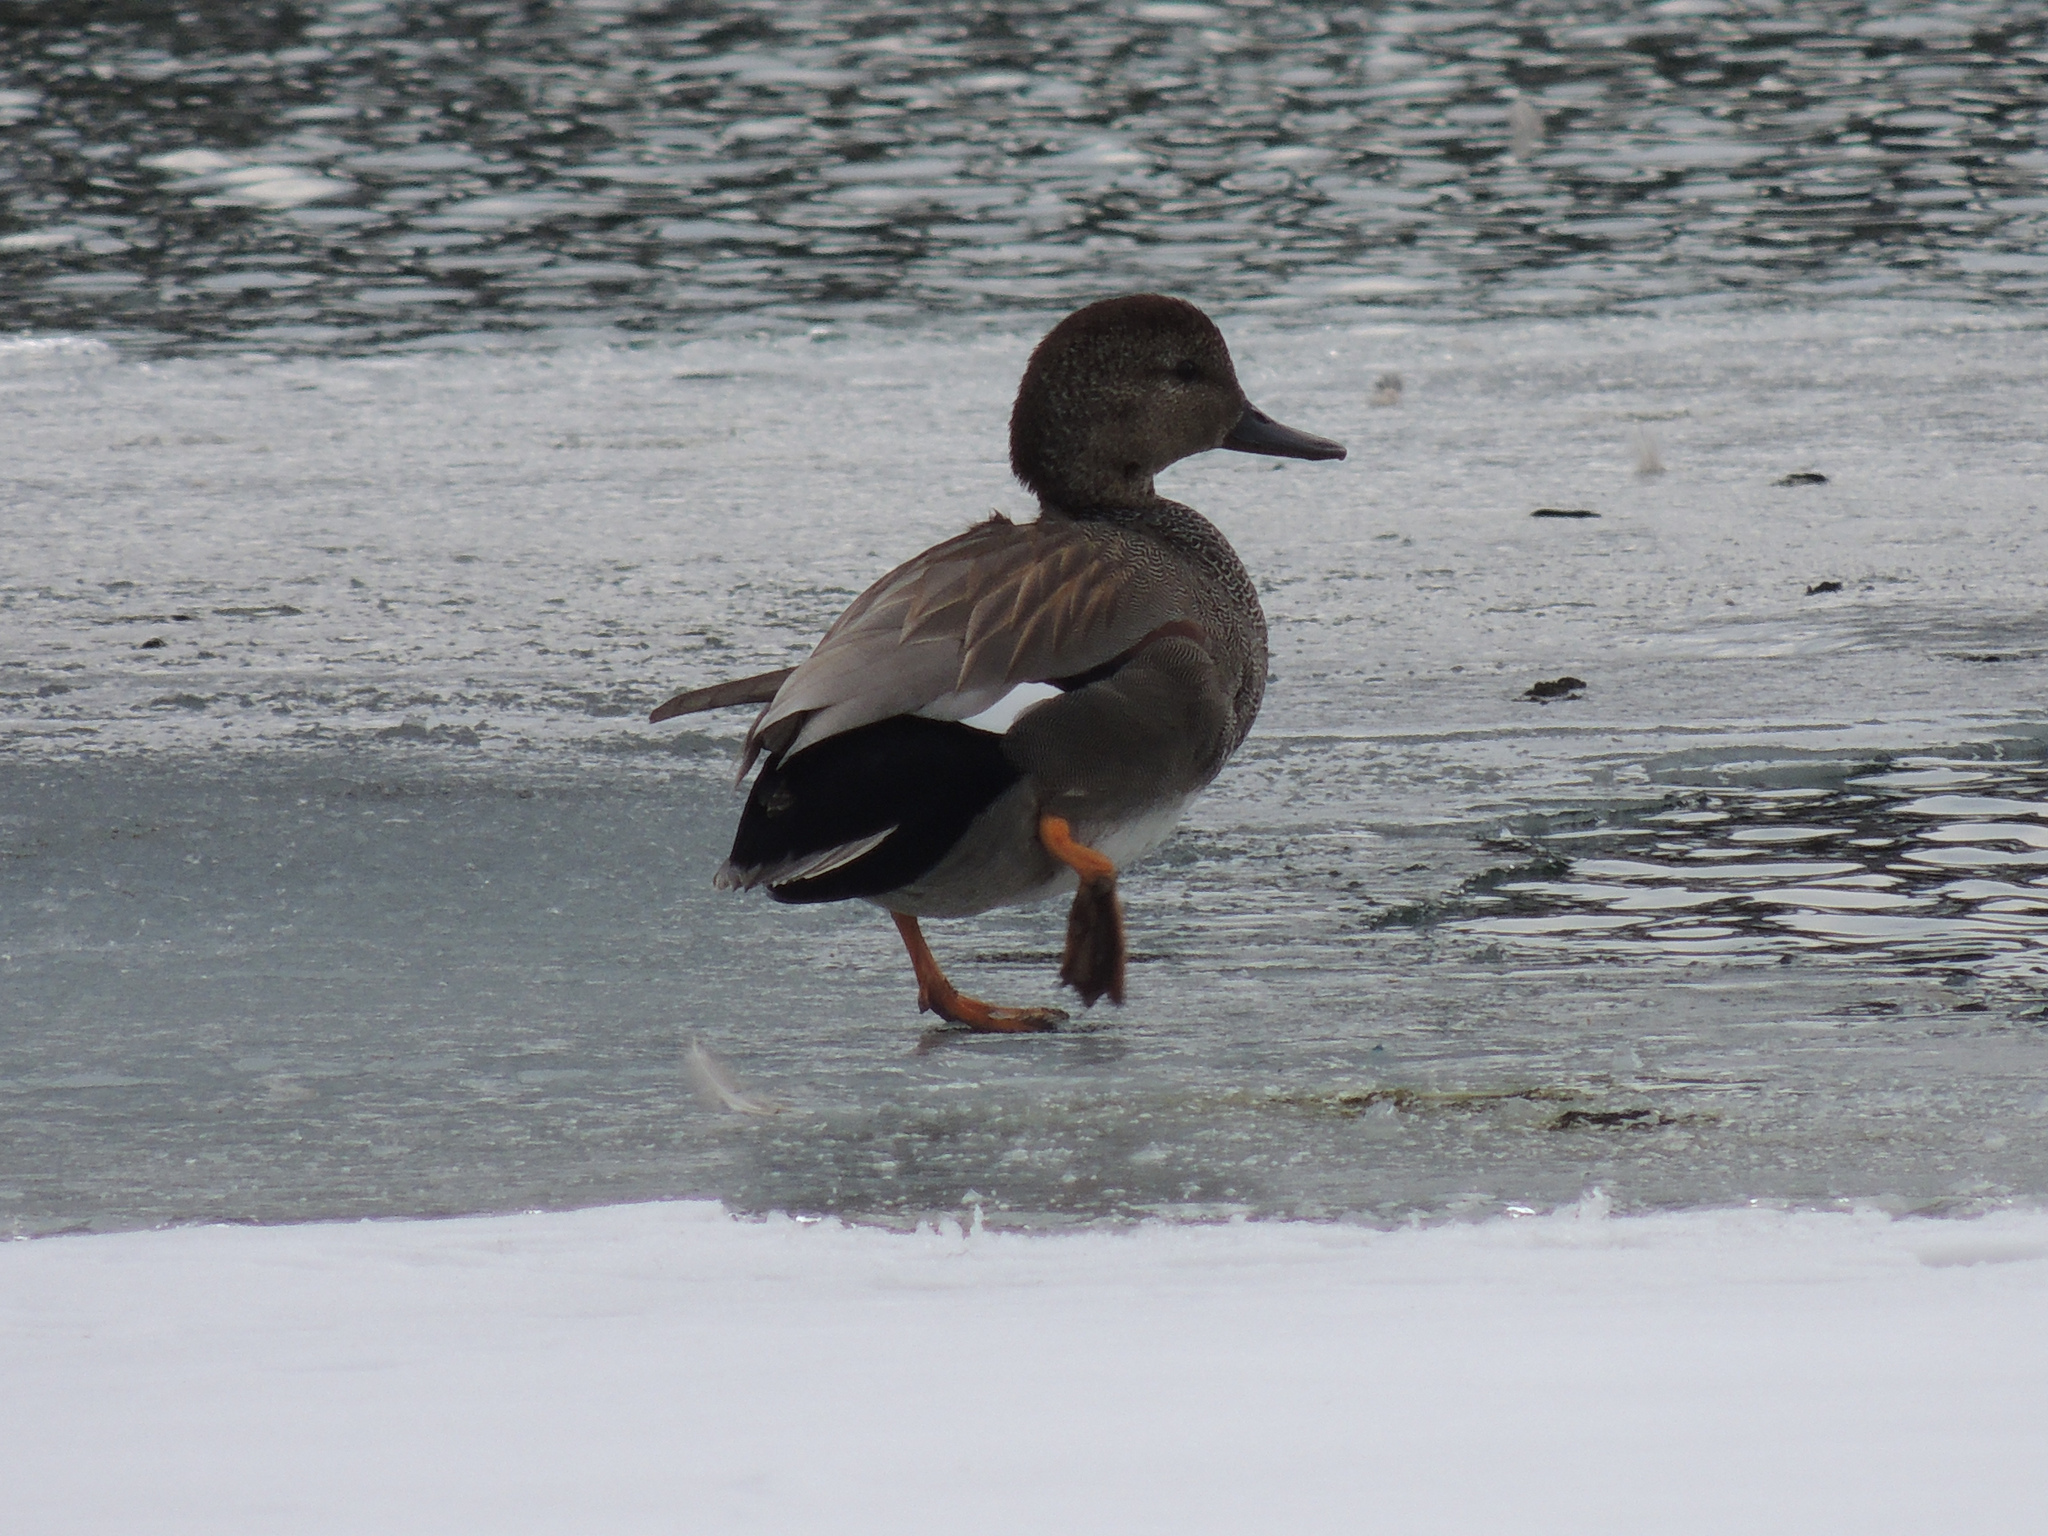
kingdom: Animalia
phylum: Chordata
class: Aves
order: Anseriformes
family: Anatidae
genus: Mareca
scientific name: Mareca strepera
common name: Gadwall
